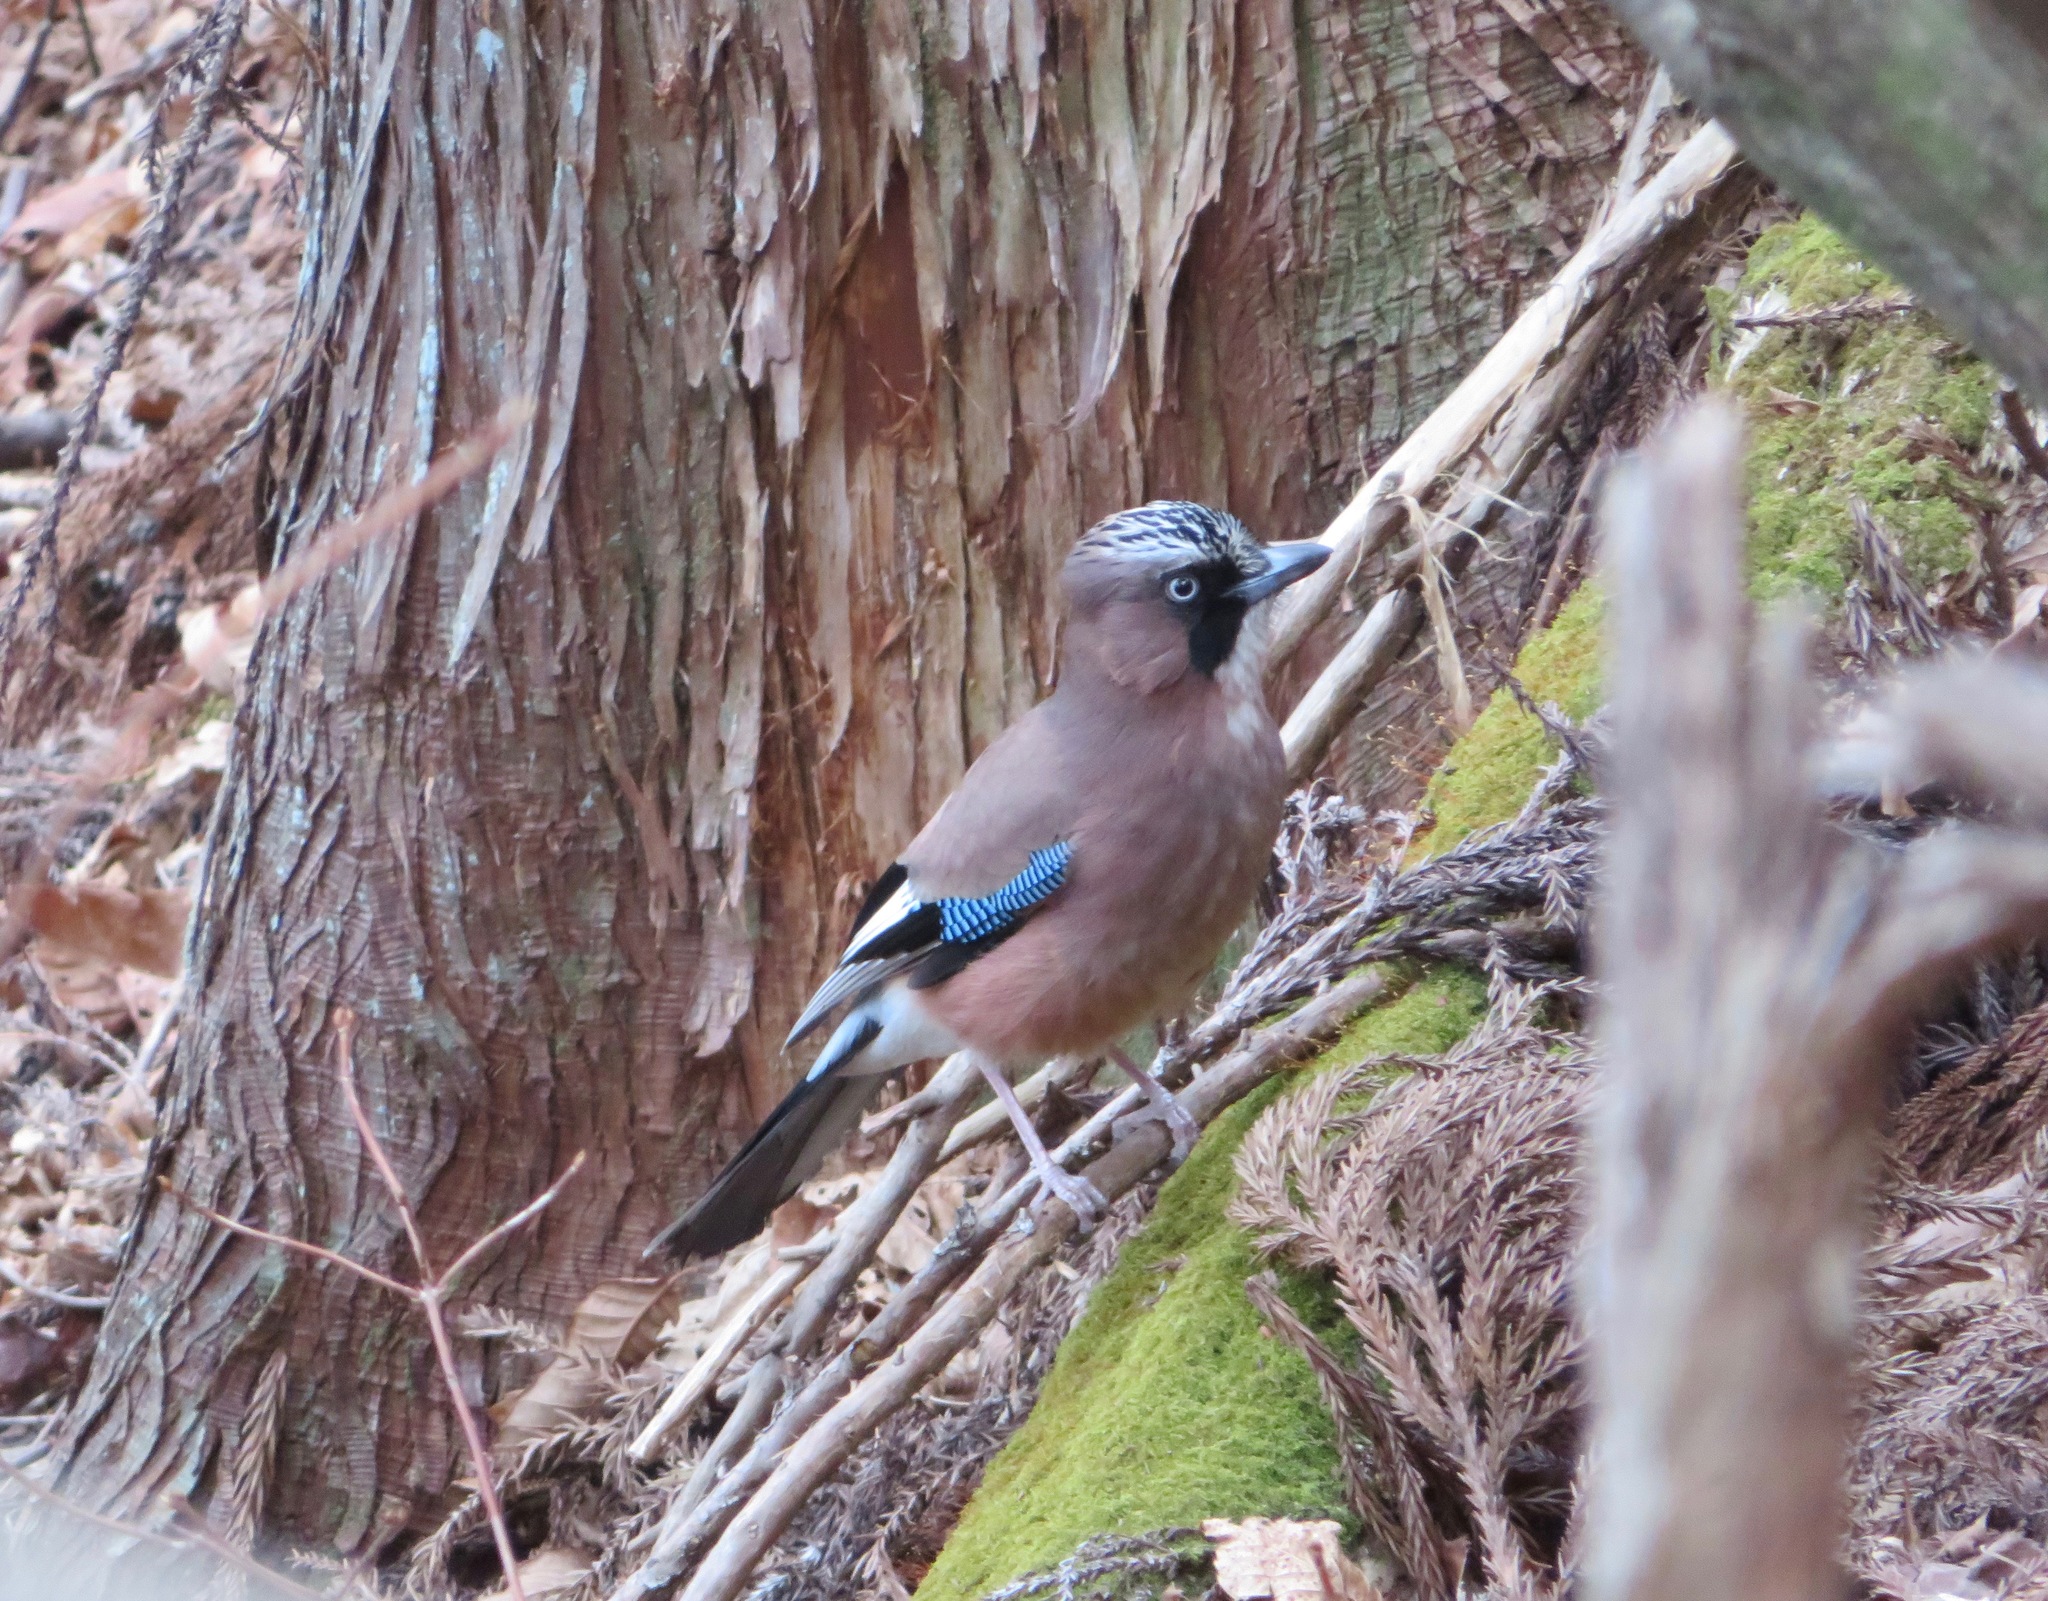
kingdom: Animalia
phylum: Chordata
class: Aves
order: Passeriformes
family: Corvidae
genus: Garrulus
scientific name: Garrulus glandarius
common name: Eurasian jay
